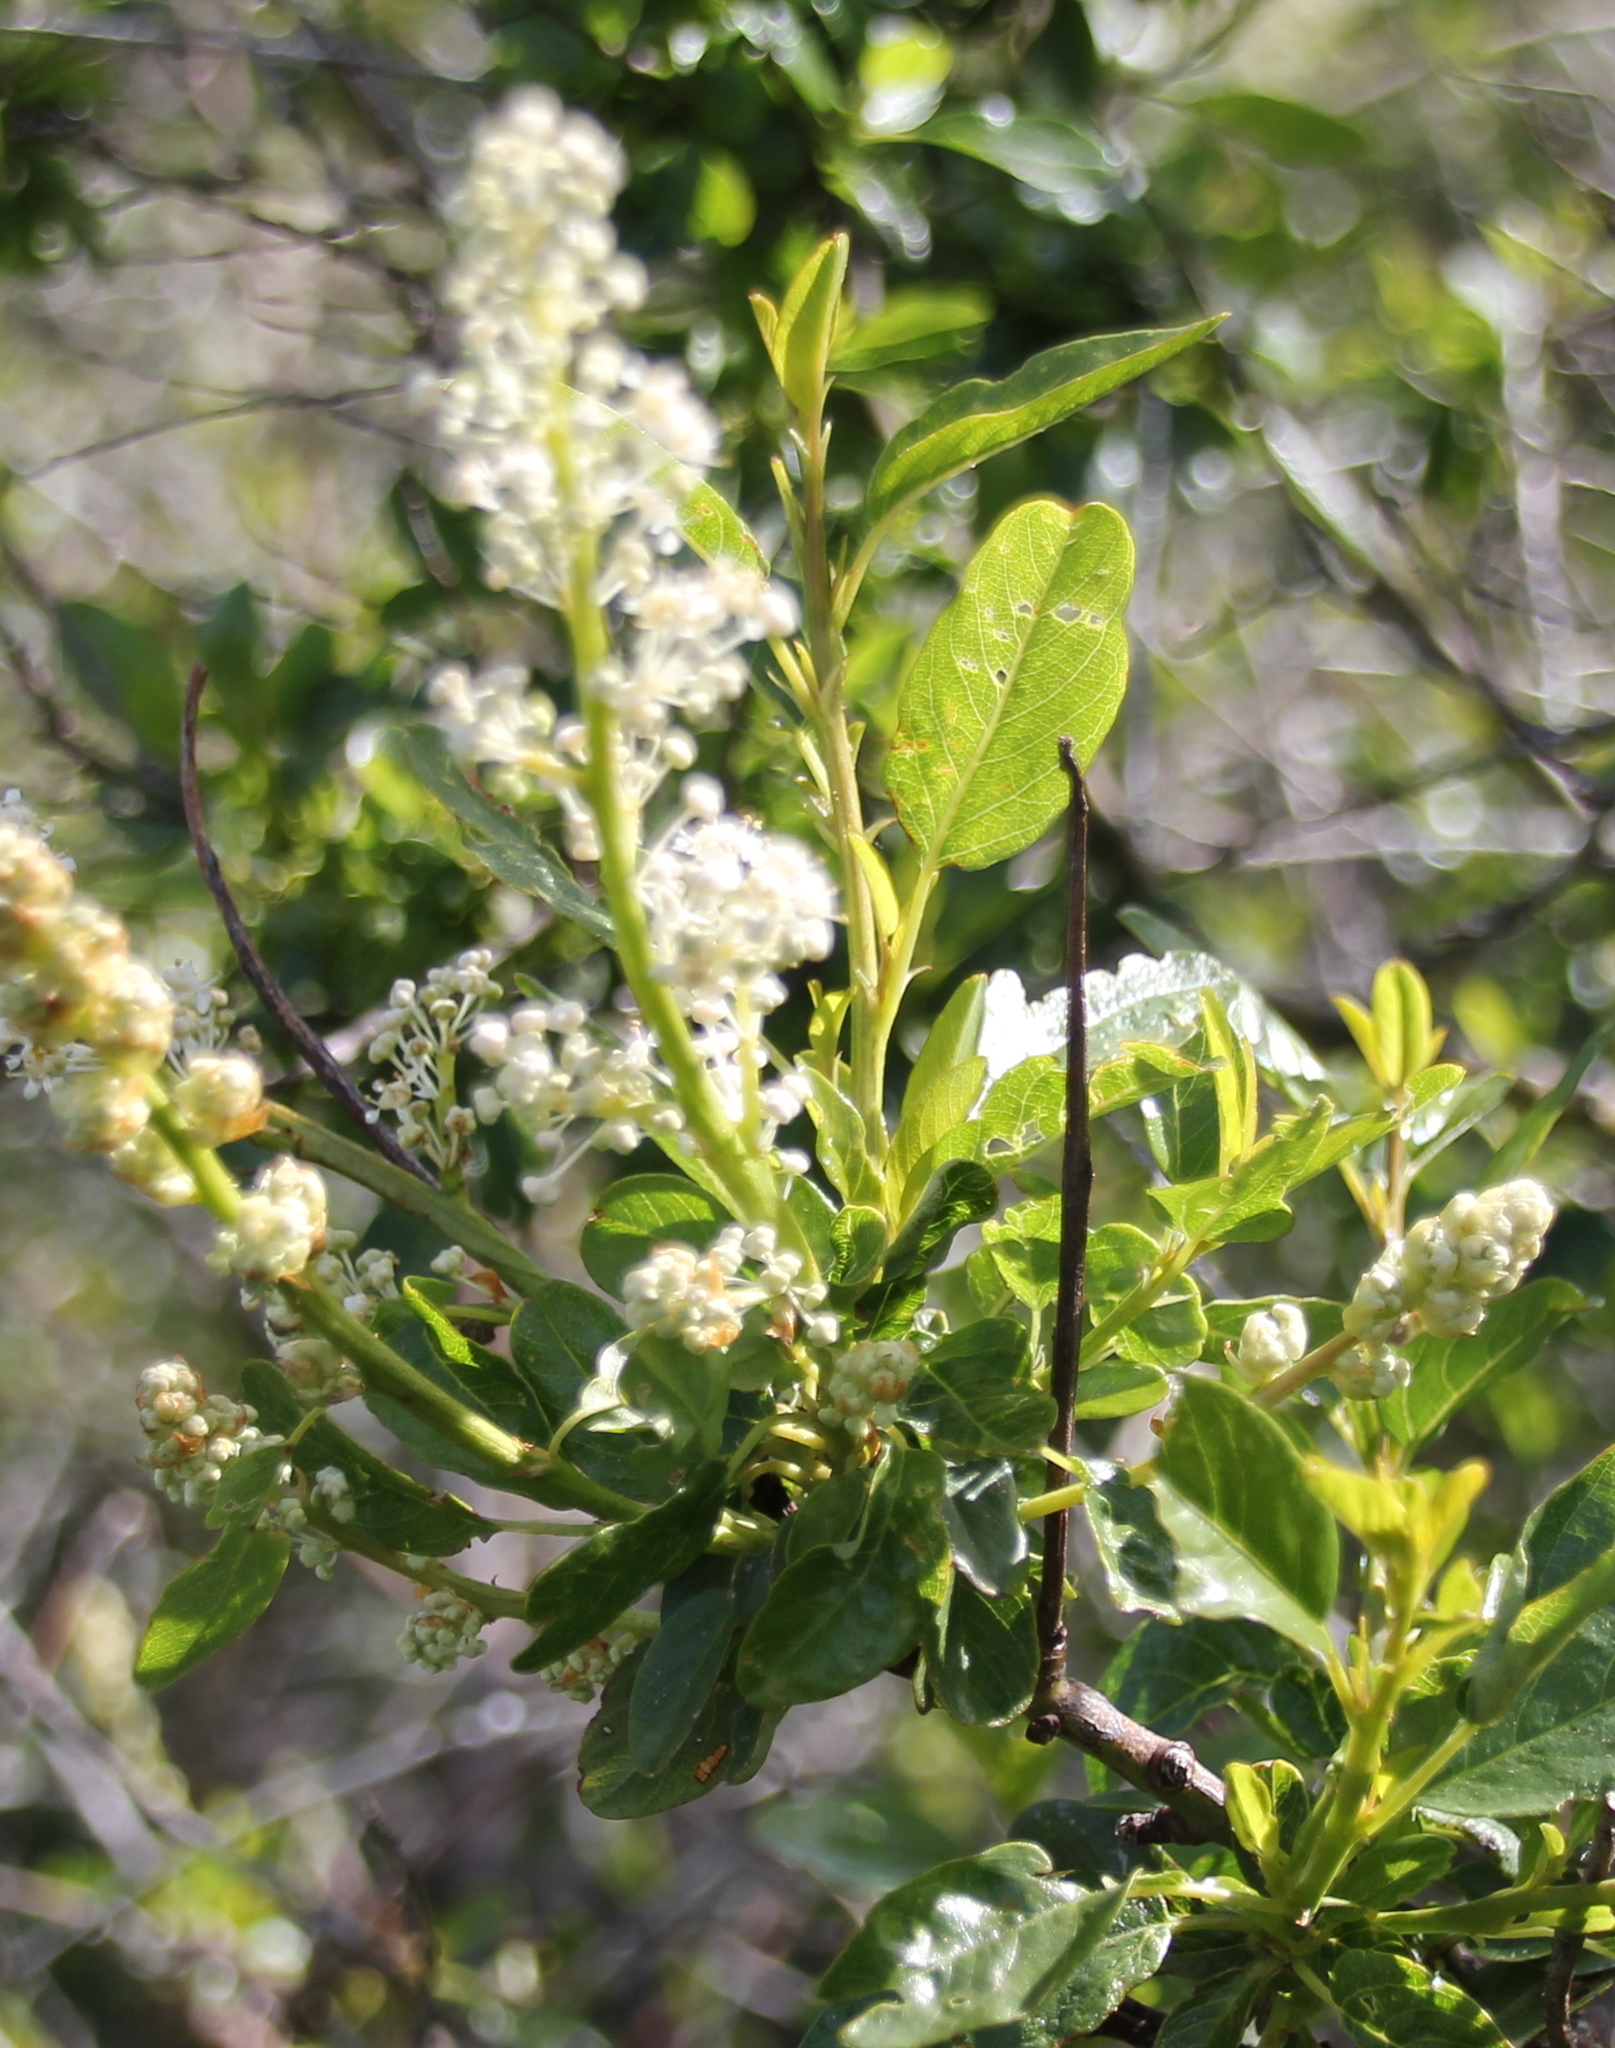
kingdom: Plantae
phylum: Tracheophyta
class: Magnoliopsida
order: Rosales
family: Rhamnaceae
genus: Ceanothus
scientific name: Ceanothus palmeri
